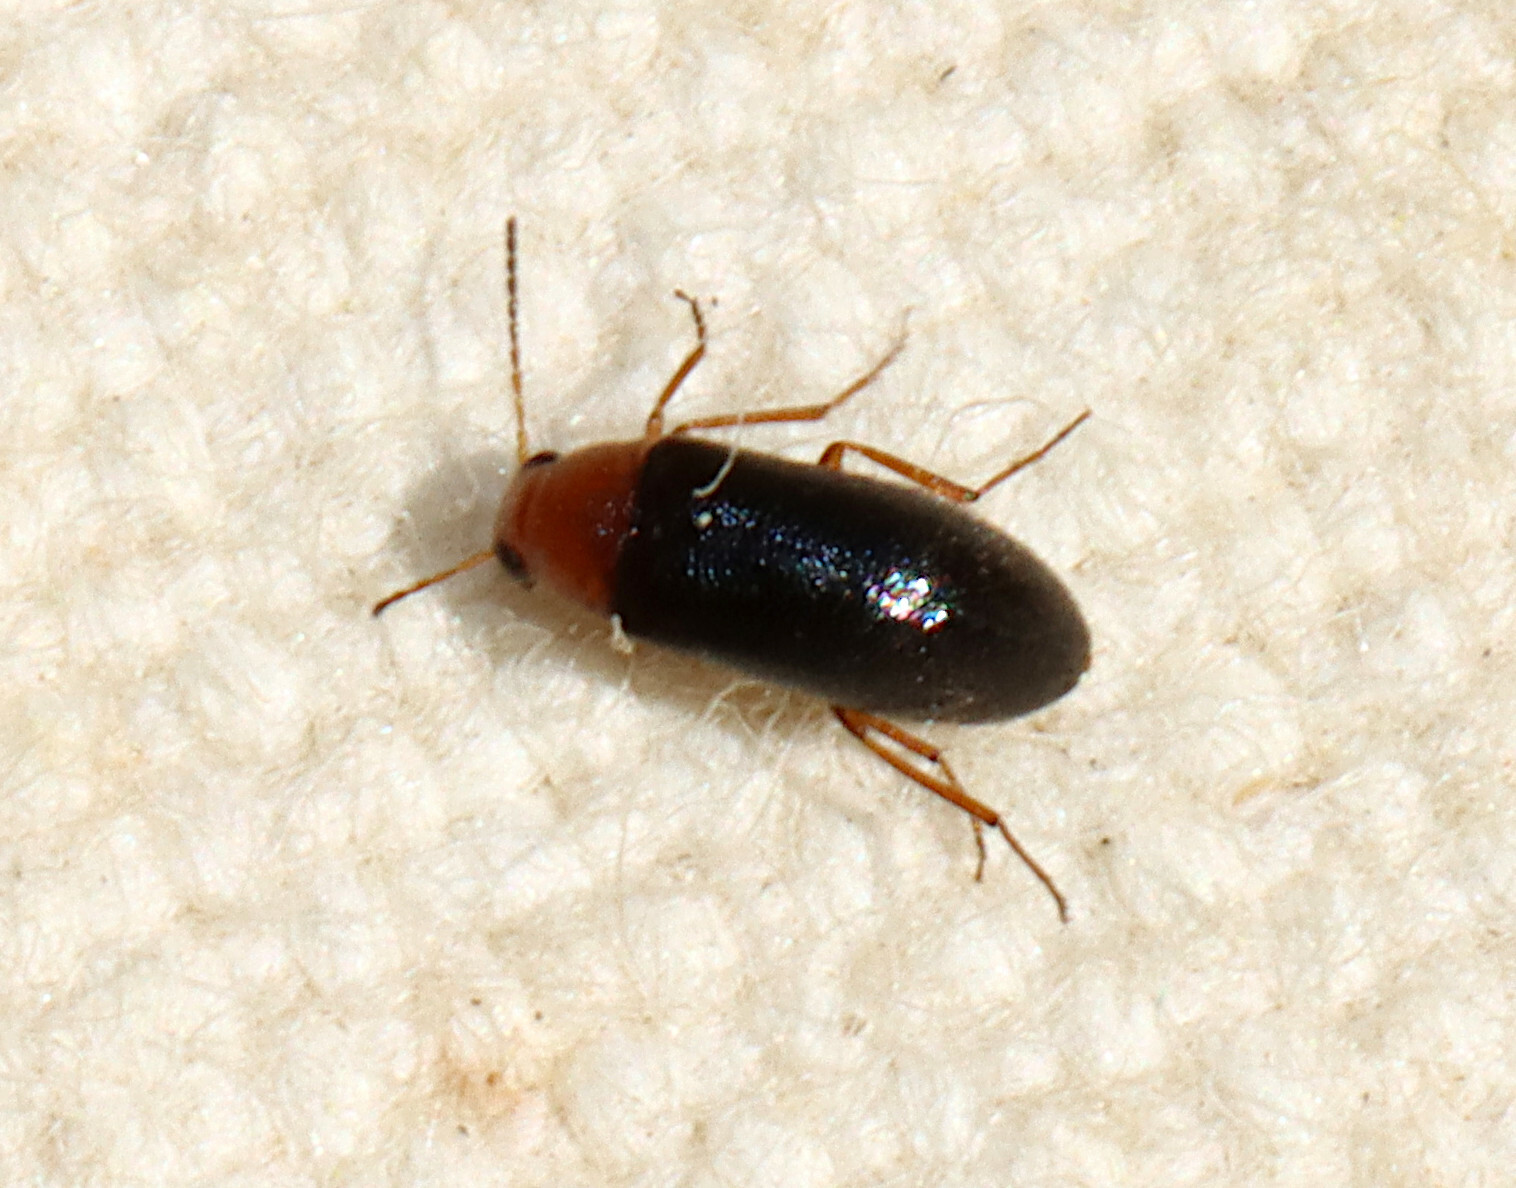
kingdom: Animalia
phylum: Arthropoda
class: Insecta
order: Coleoptera
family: Melandryidae
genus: Symphora
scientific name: Symphora flavicollis
